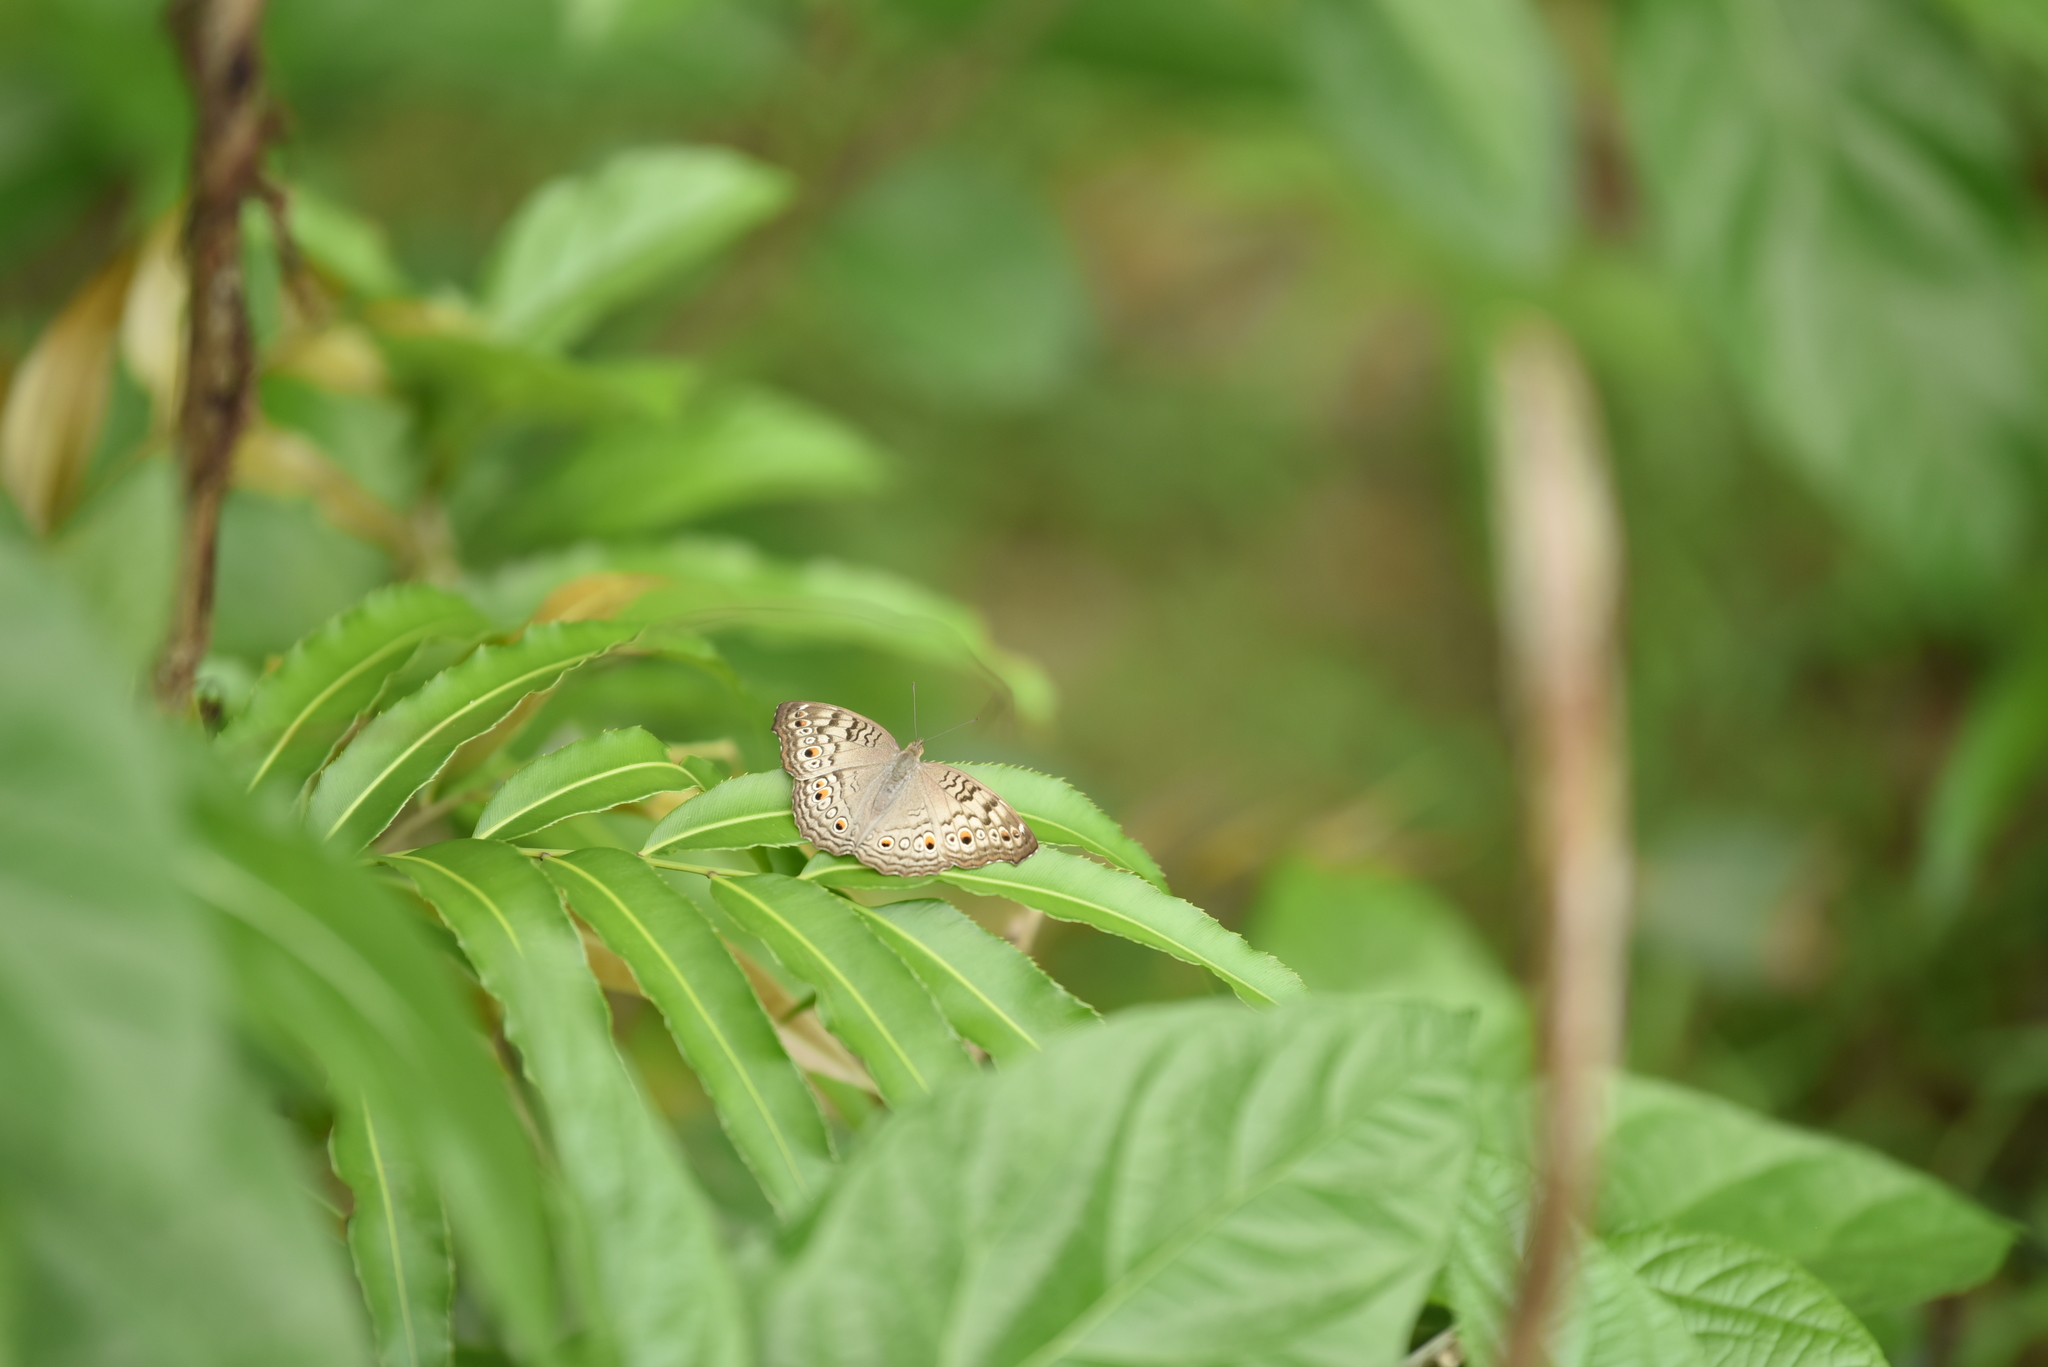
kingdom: Animalia
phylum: Arthropoda
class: Insecta
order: Lepidoptera
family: Nymphalidae
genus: Junonia
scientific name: Junonia atlites
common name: Grey pansy
